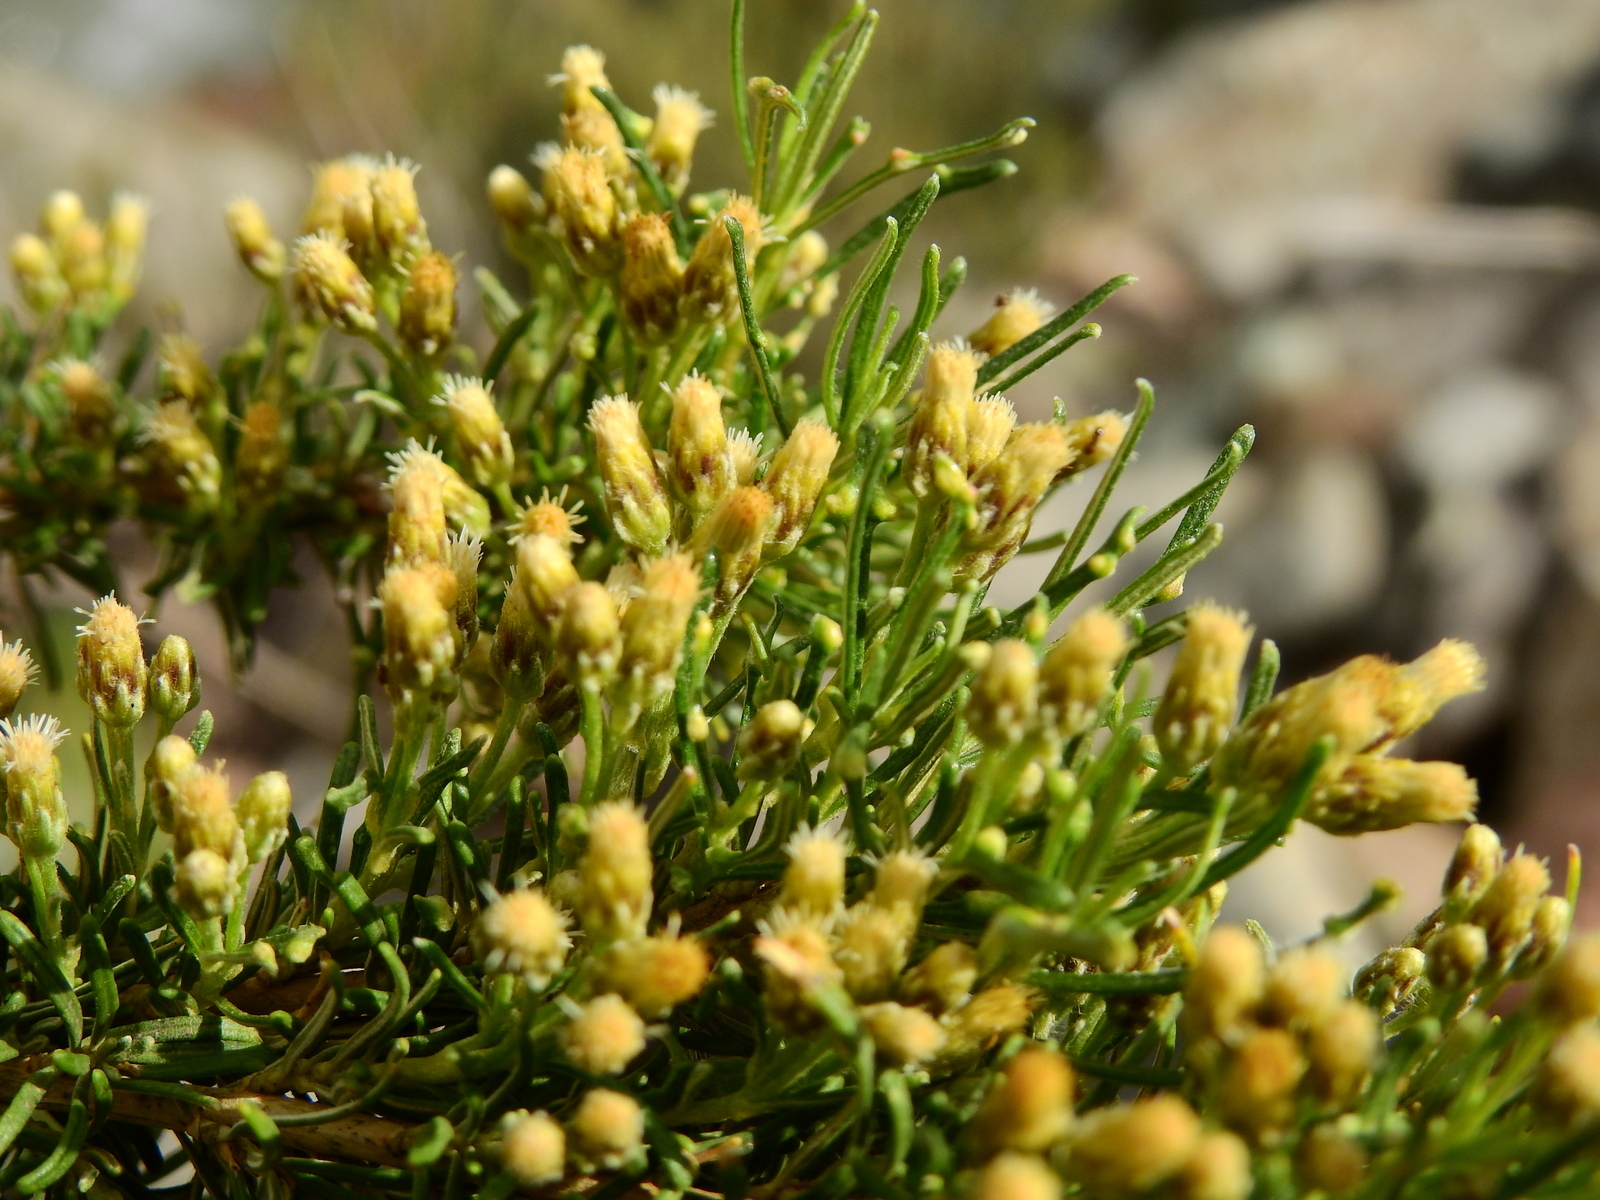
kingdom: Plantae
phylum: Tracheophyta
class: Magnoliopsida
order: Asterales
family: Asteraceae
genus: Baccharis
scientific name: Baccharis grisebachii
